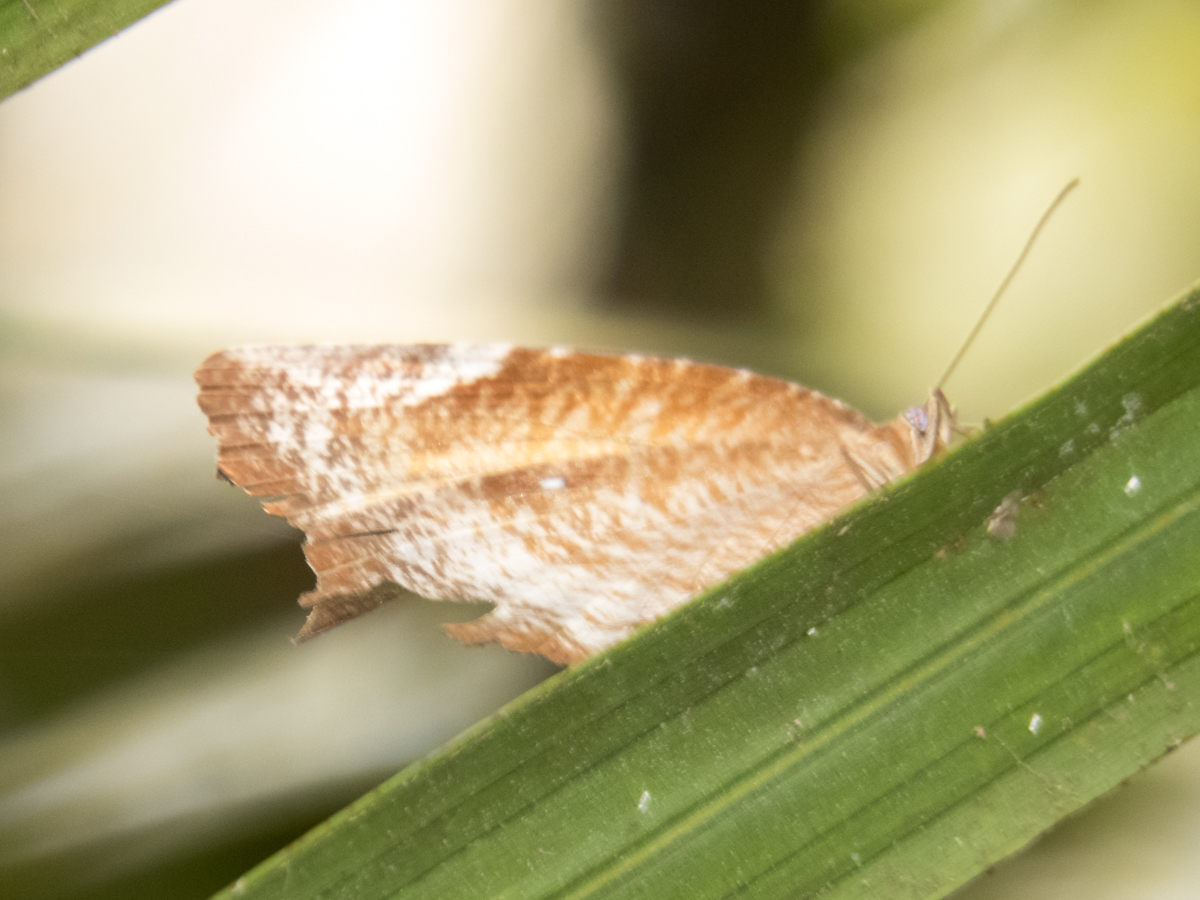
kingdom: Animalia
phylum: Arthropoda
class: Insecta
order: Lepidoptera
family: Nymphalidae
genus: Elymnias
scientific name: Elymnias hypermnestra
